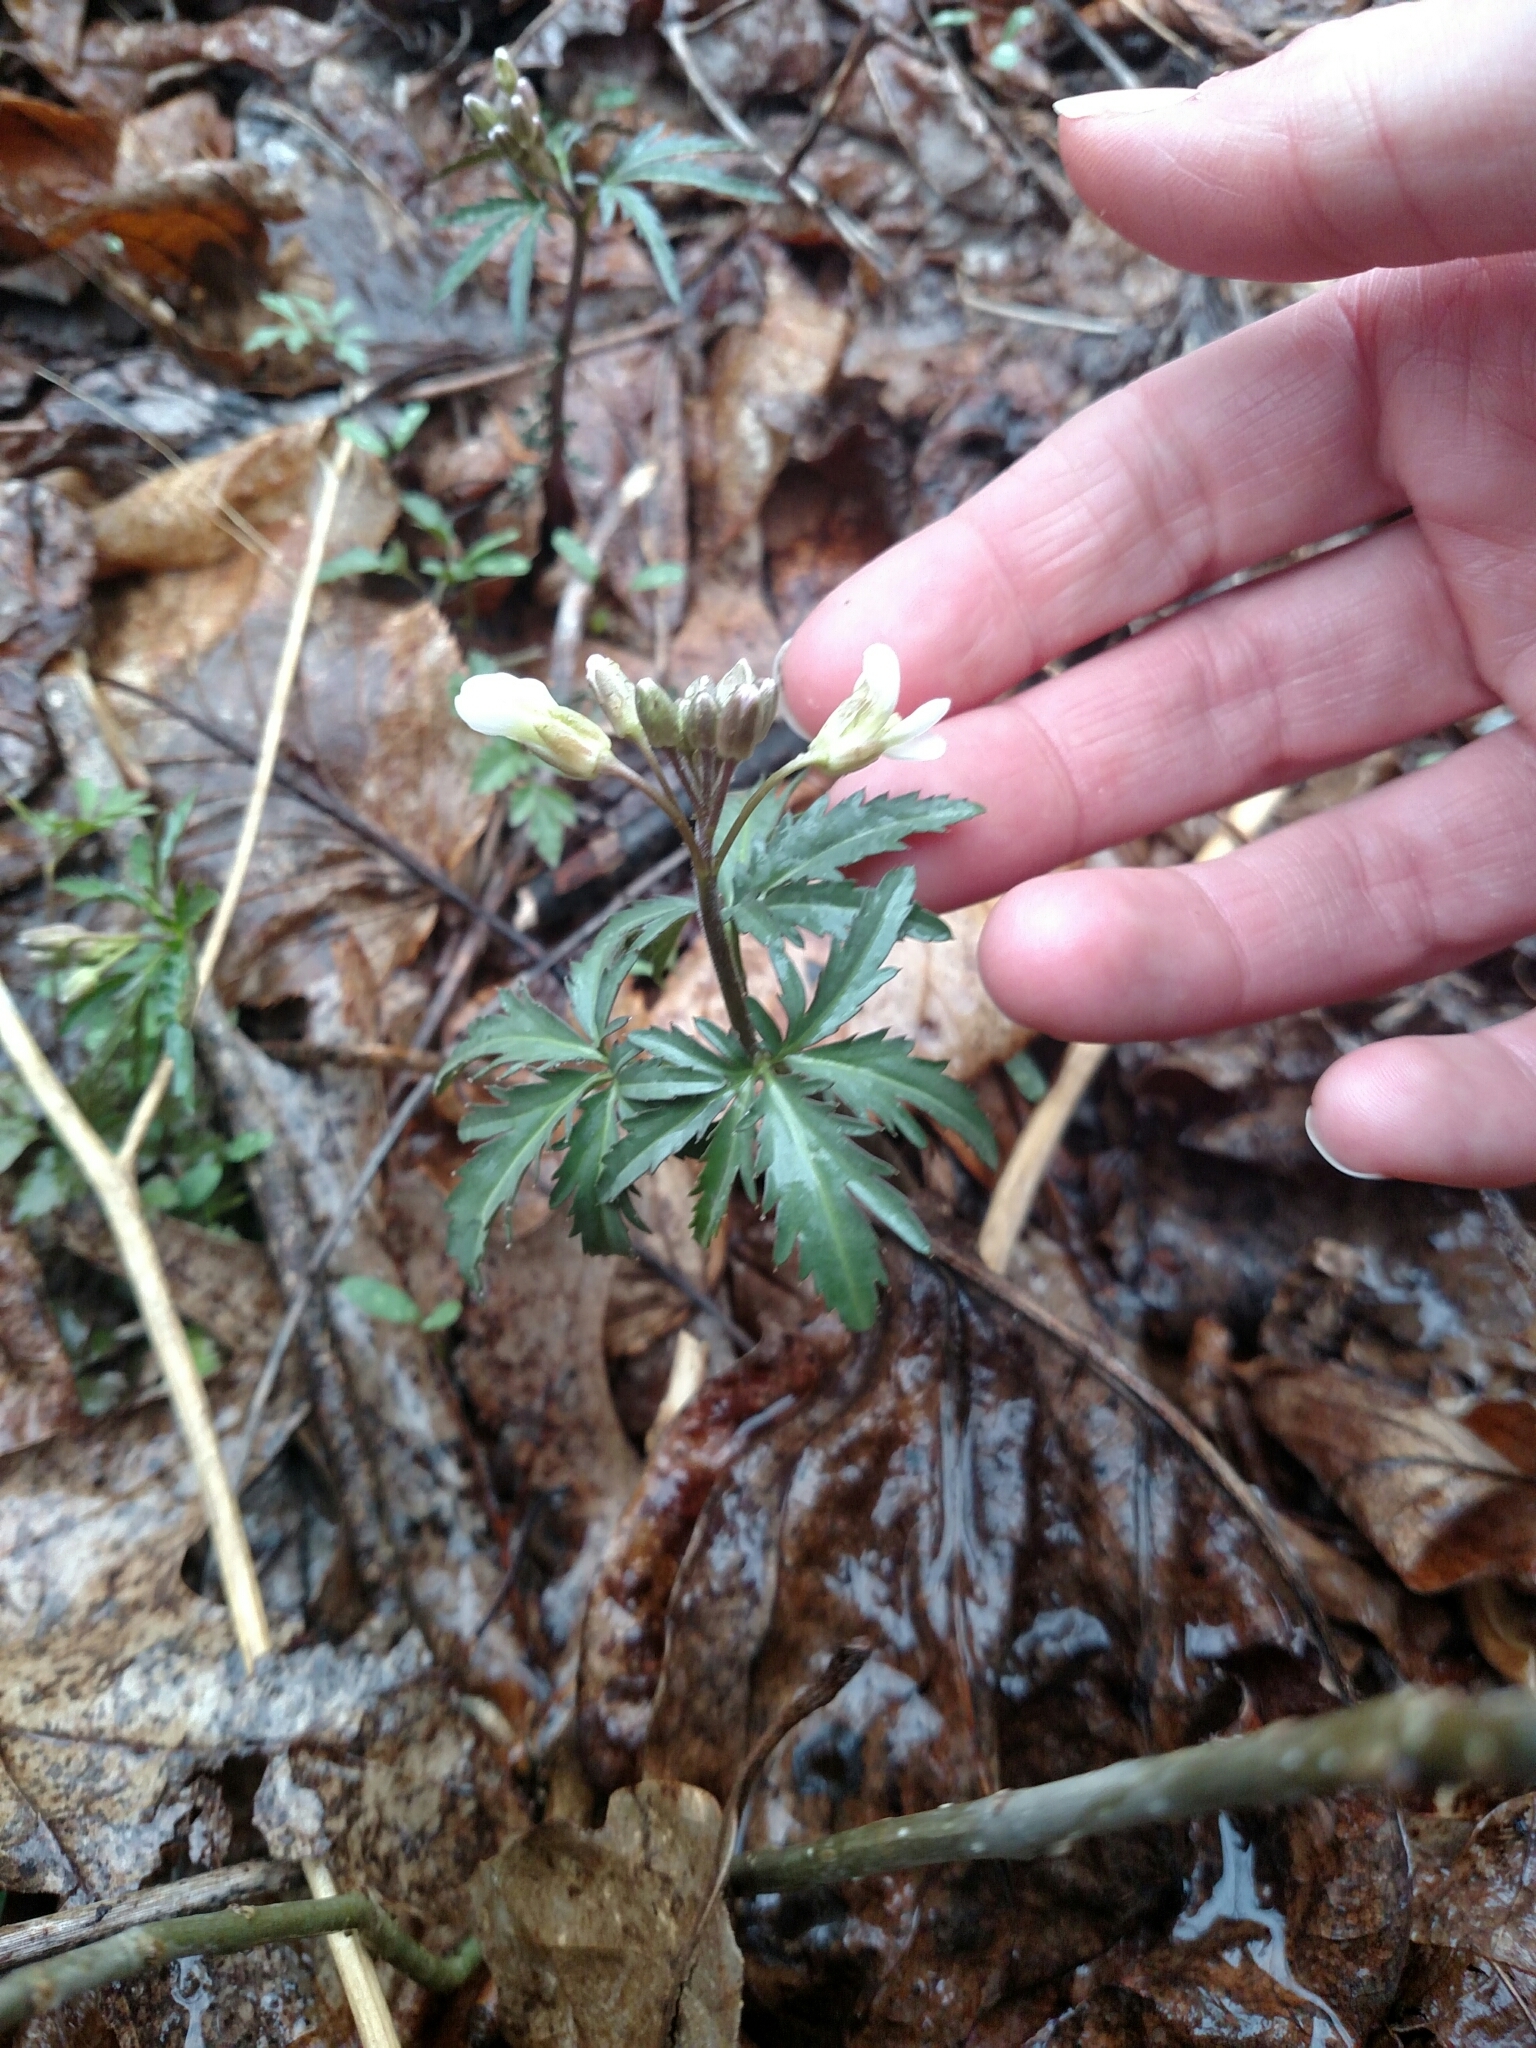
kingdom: Plantae
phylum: Tracheophyta
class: Magnoliopsida
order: Brassicales
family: Brassicaceae
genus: Cardamine
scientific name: Cardamine concatenata
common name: Cut-leaf toothcup
